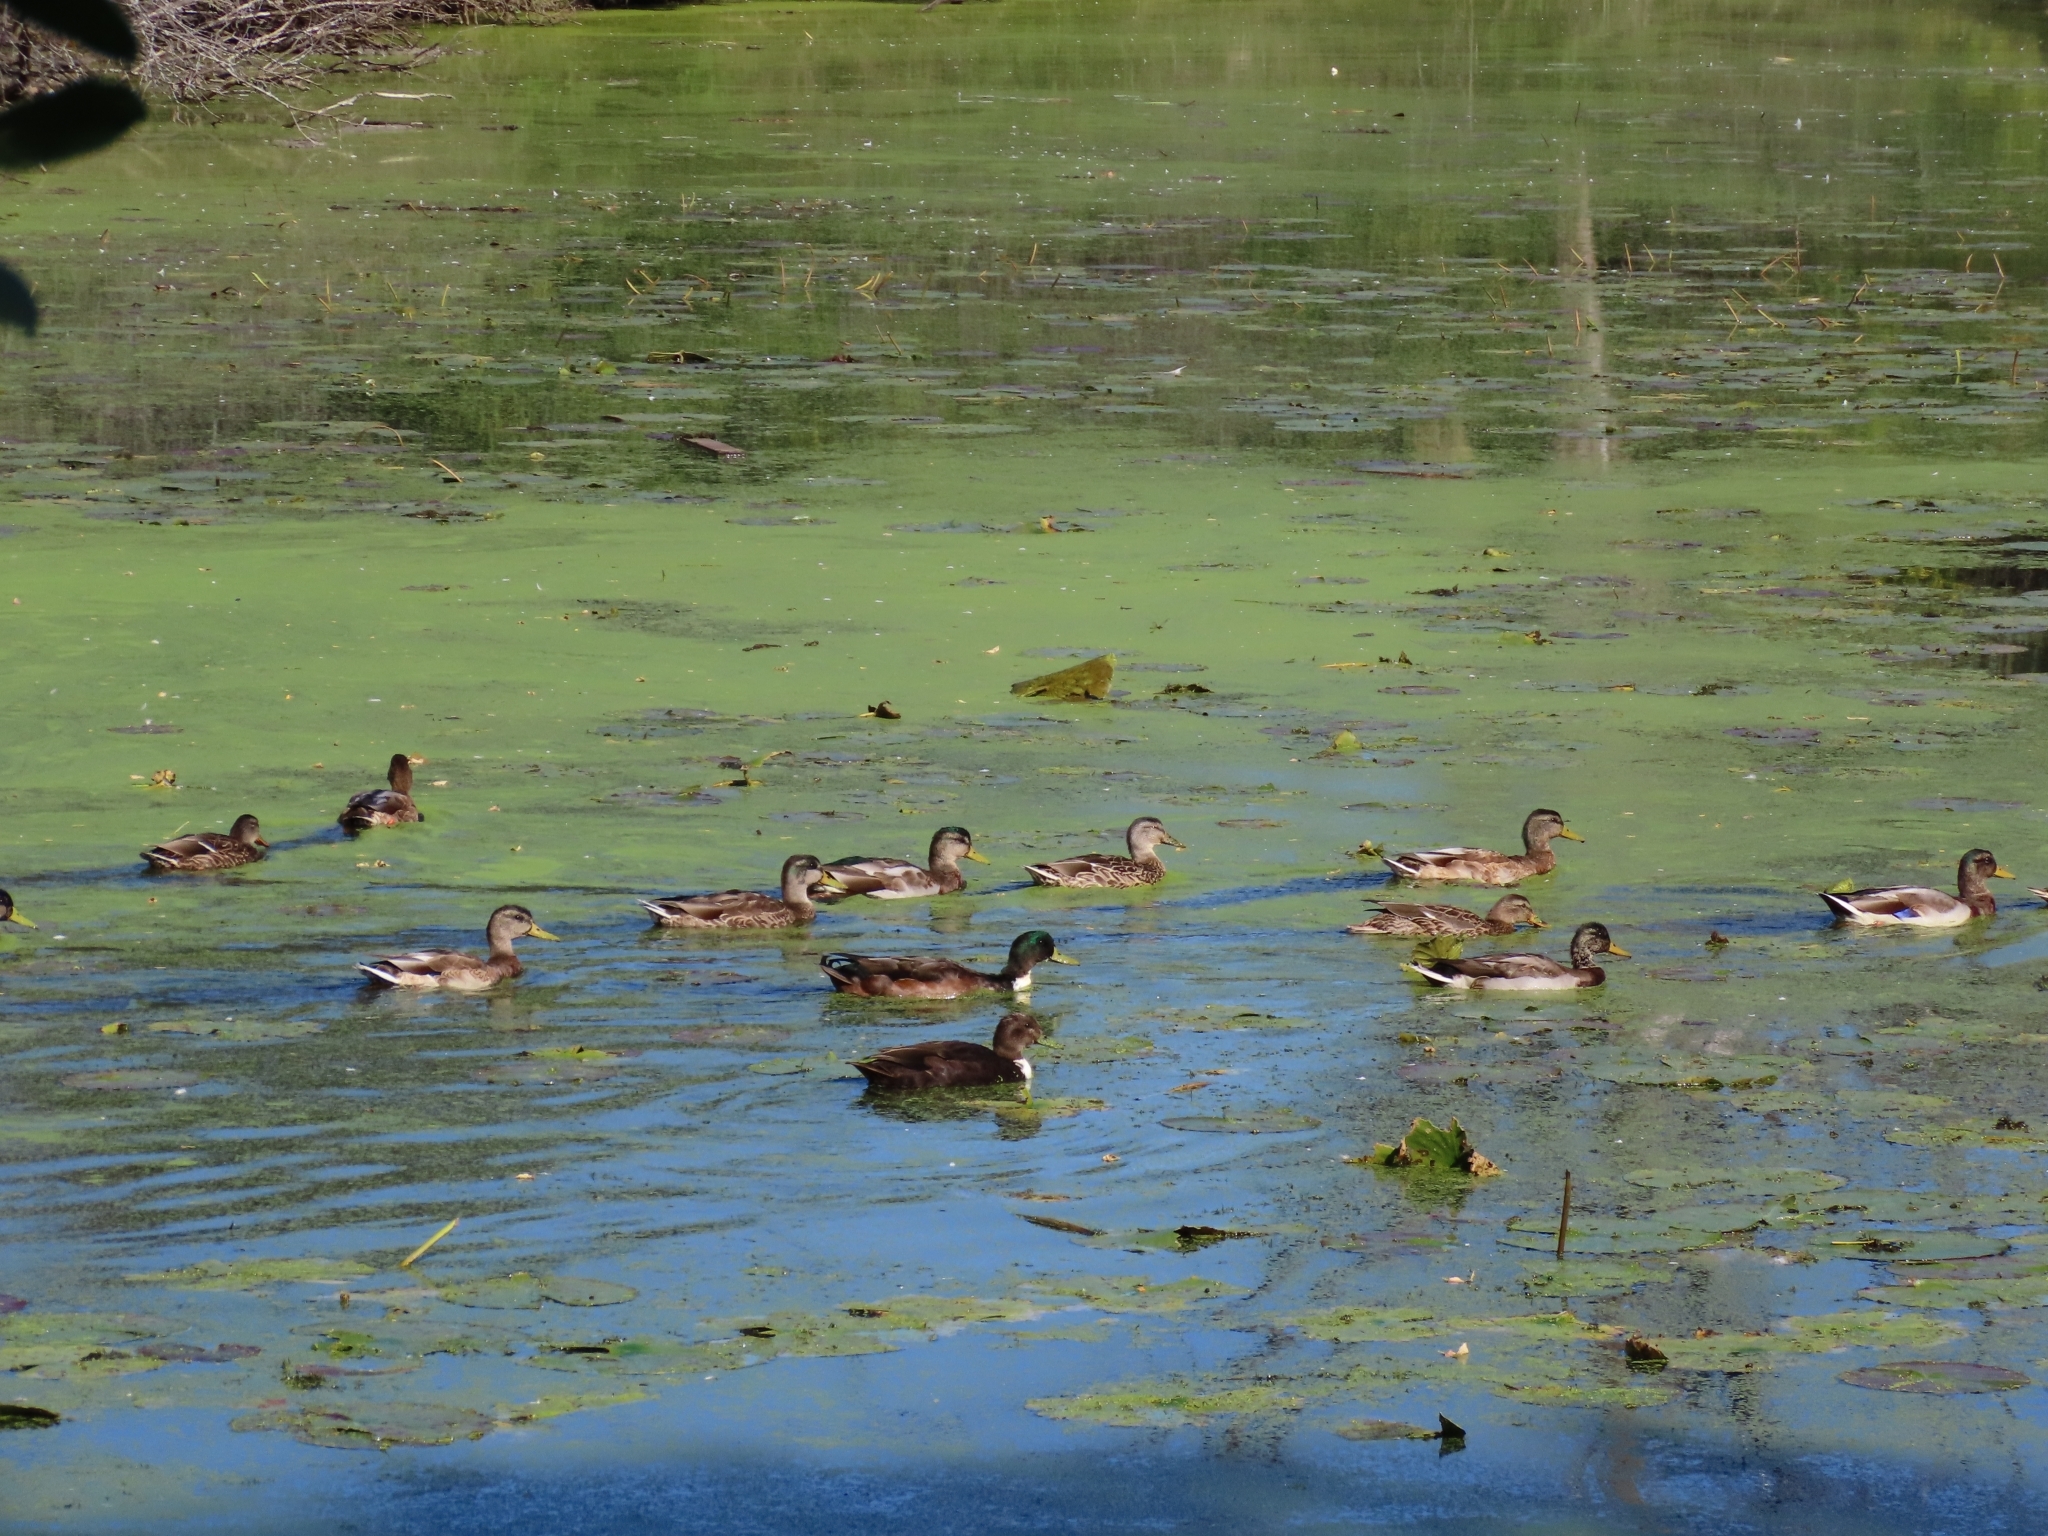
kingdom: Animalia
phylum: Chordata
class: Aves
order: Anseriformes
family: Anatidae
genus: Anas
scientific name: Anas platyrhynchos
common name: Mallard
